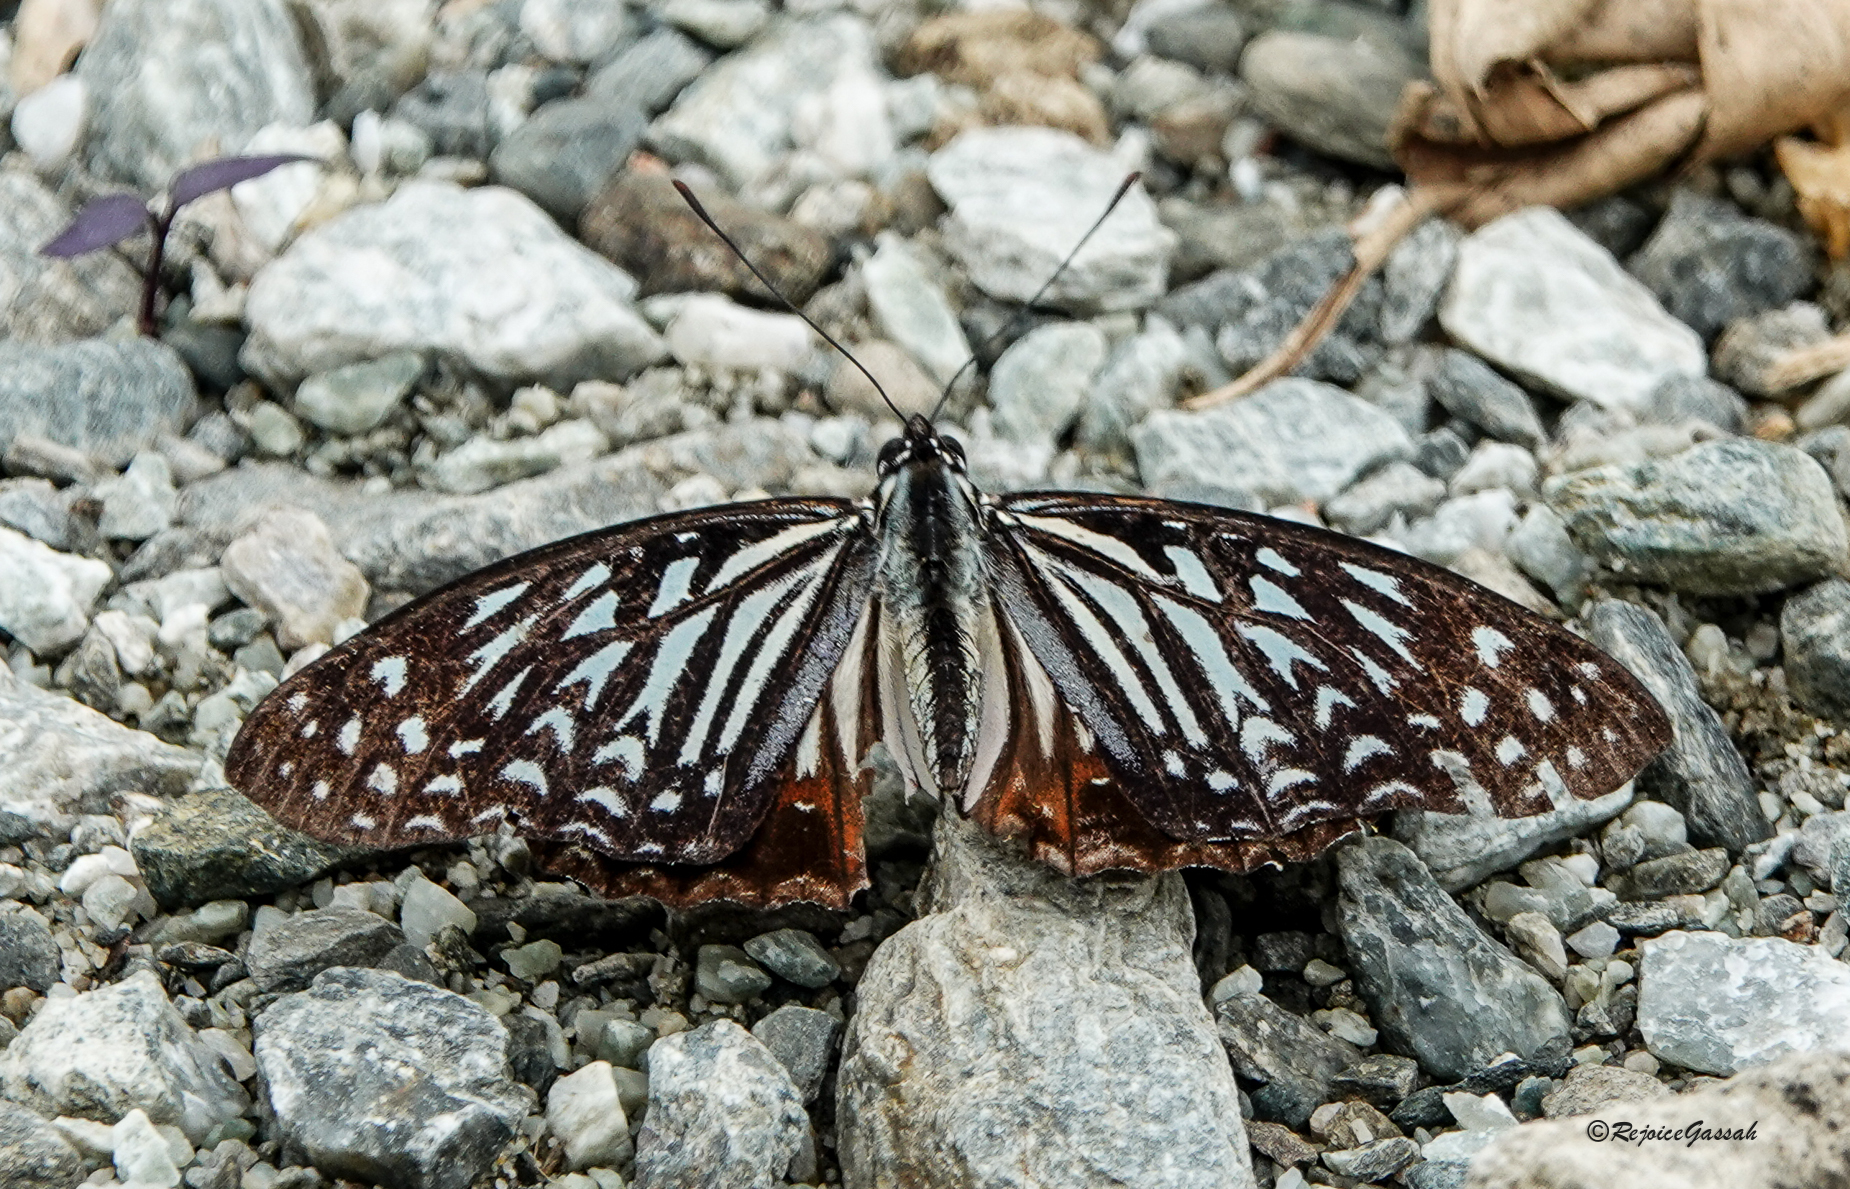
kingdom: Animalia
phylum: Arthropoda
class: Insecta
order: Lepidoptera
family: Nymphalidae
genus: Hestinalis
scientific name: Hestinalis nama
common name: Circe
